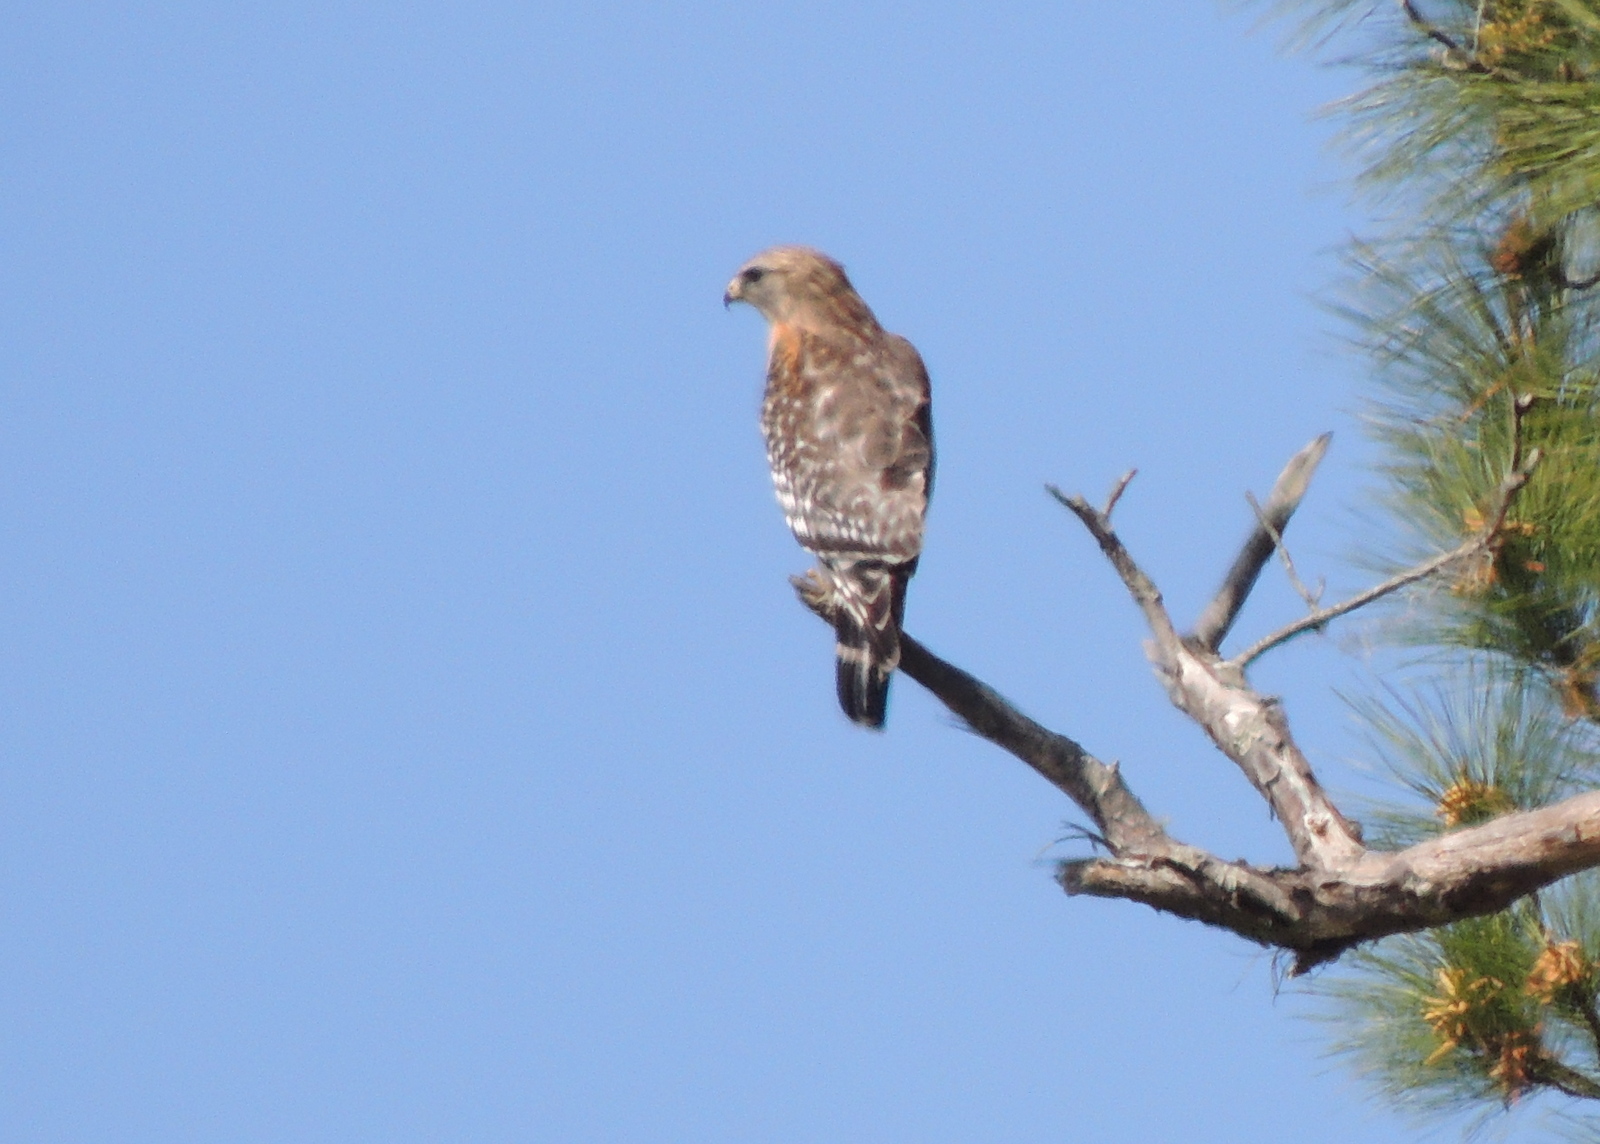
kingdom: Animalia
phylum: Chordata
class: Aves
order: Accipitriformes
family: Accipitridae
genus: Buteo
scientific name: Buteo lineatus
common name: Red-shouldered hawk
